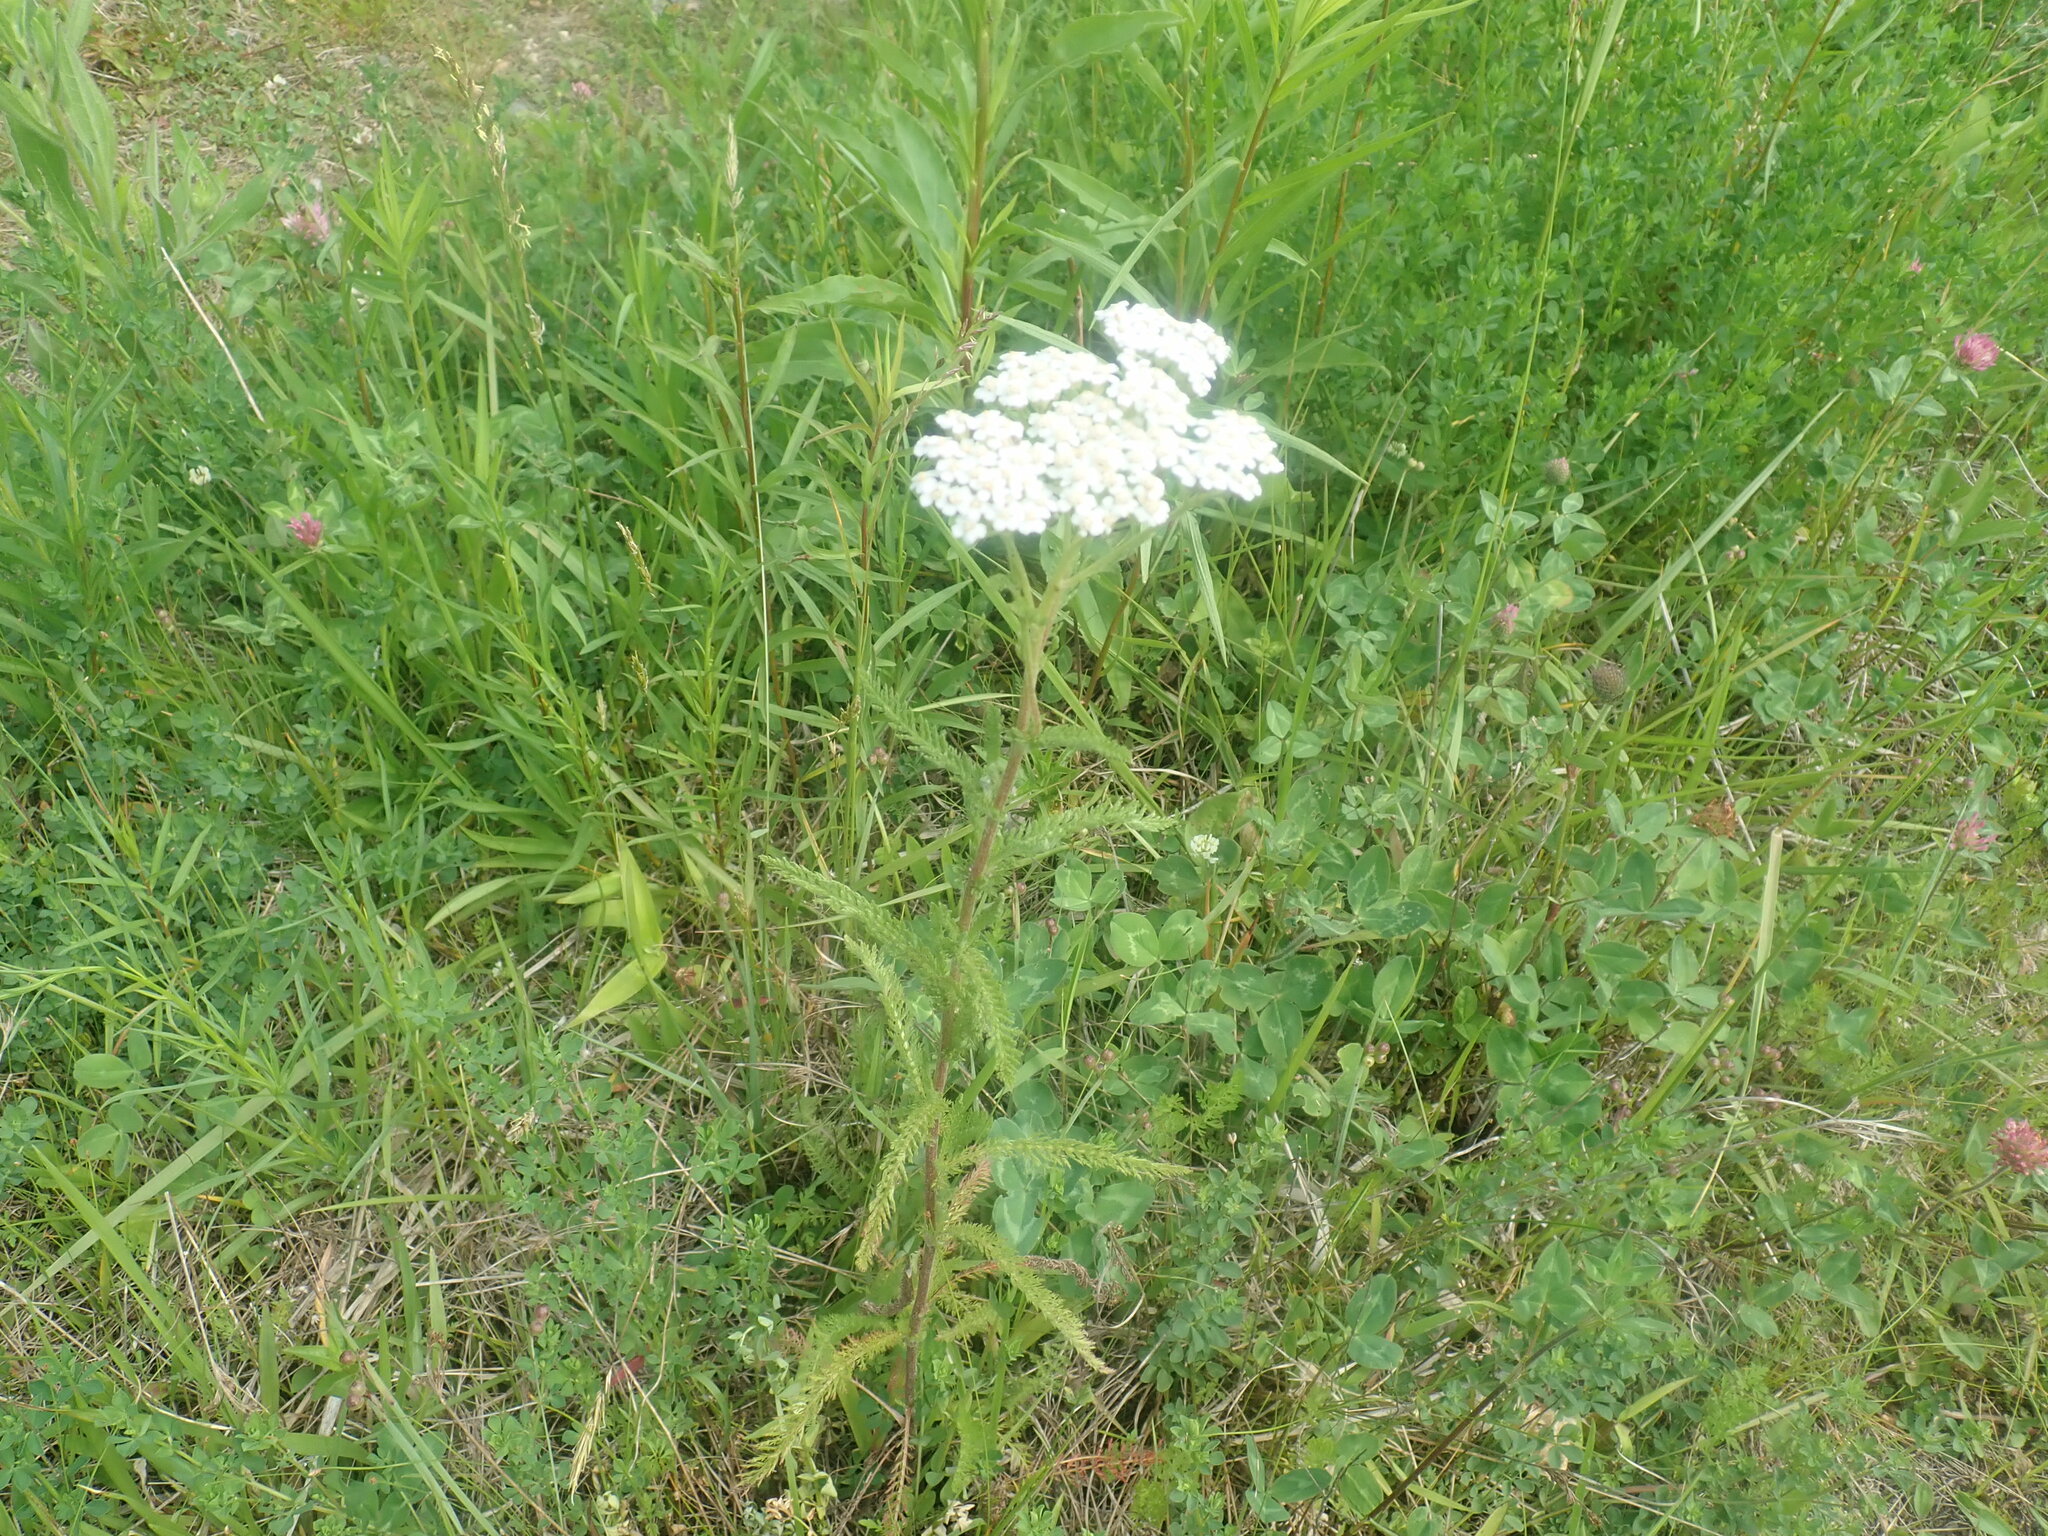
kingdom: Plantae
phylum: Tracheophyta
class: Magnoliopsida
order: Asterales
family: Asteraceae
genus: Achillea
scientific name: Achillea millefolium
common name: Yarrow
